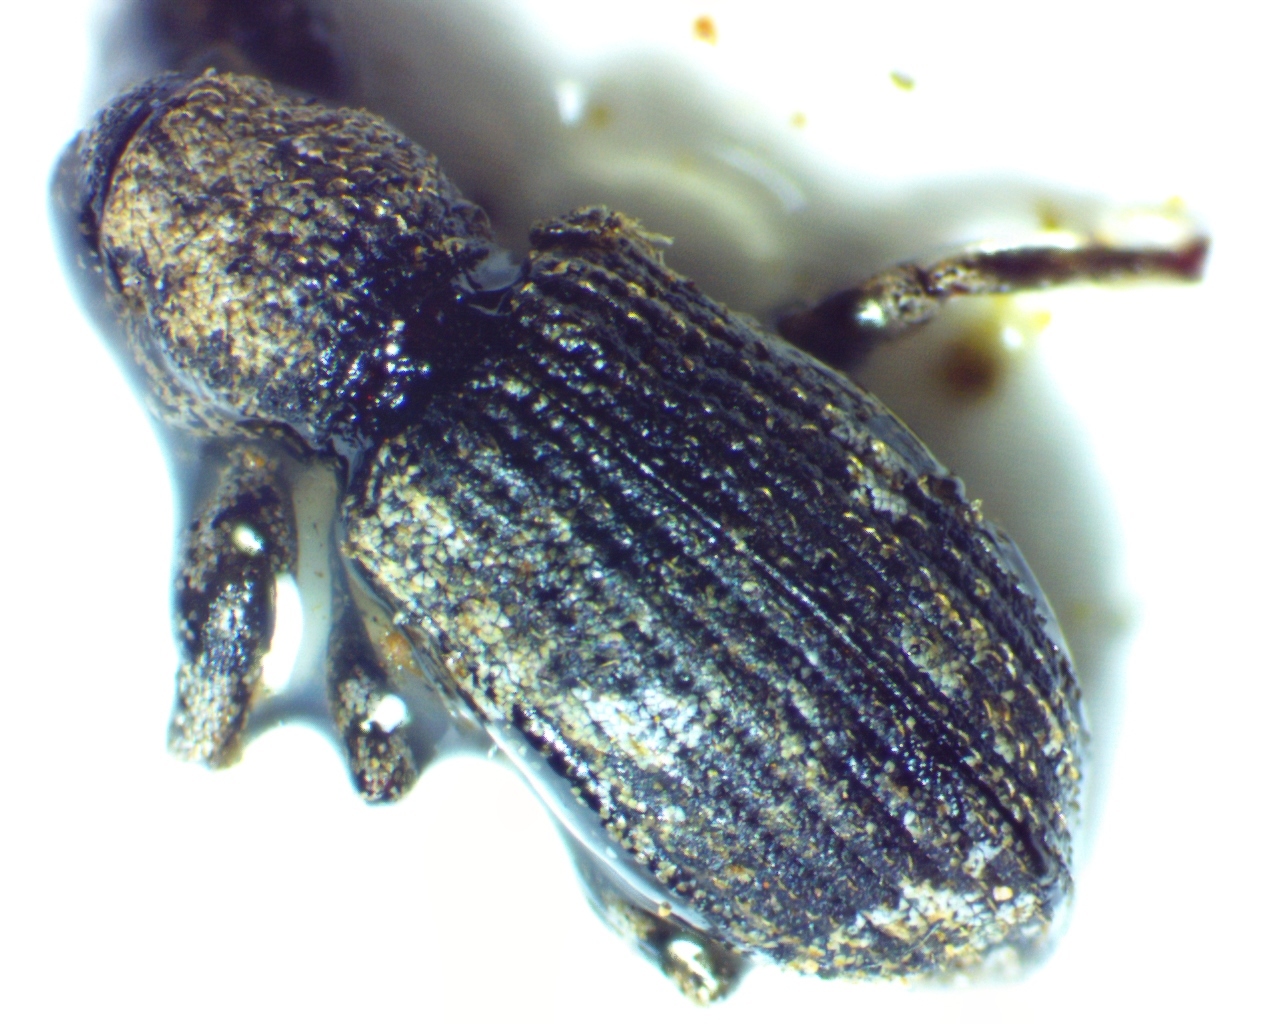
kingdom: Animalia
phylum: Arthropoda
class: Insecta
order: Coleoptera
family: Curculionidae
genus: Pandeleteius
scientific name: Pandeleteius hilaris
